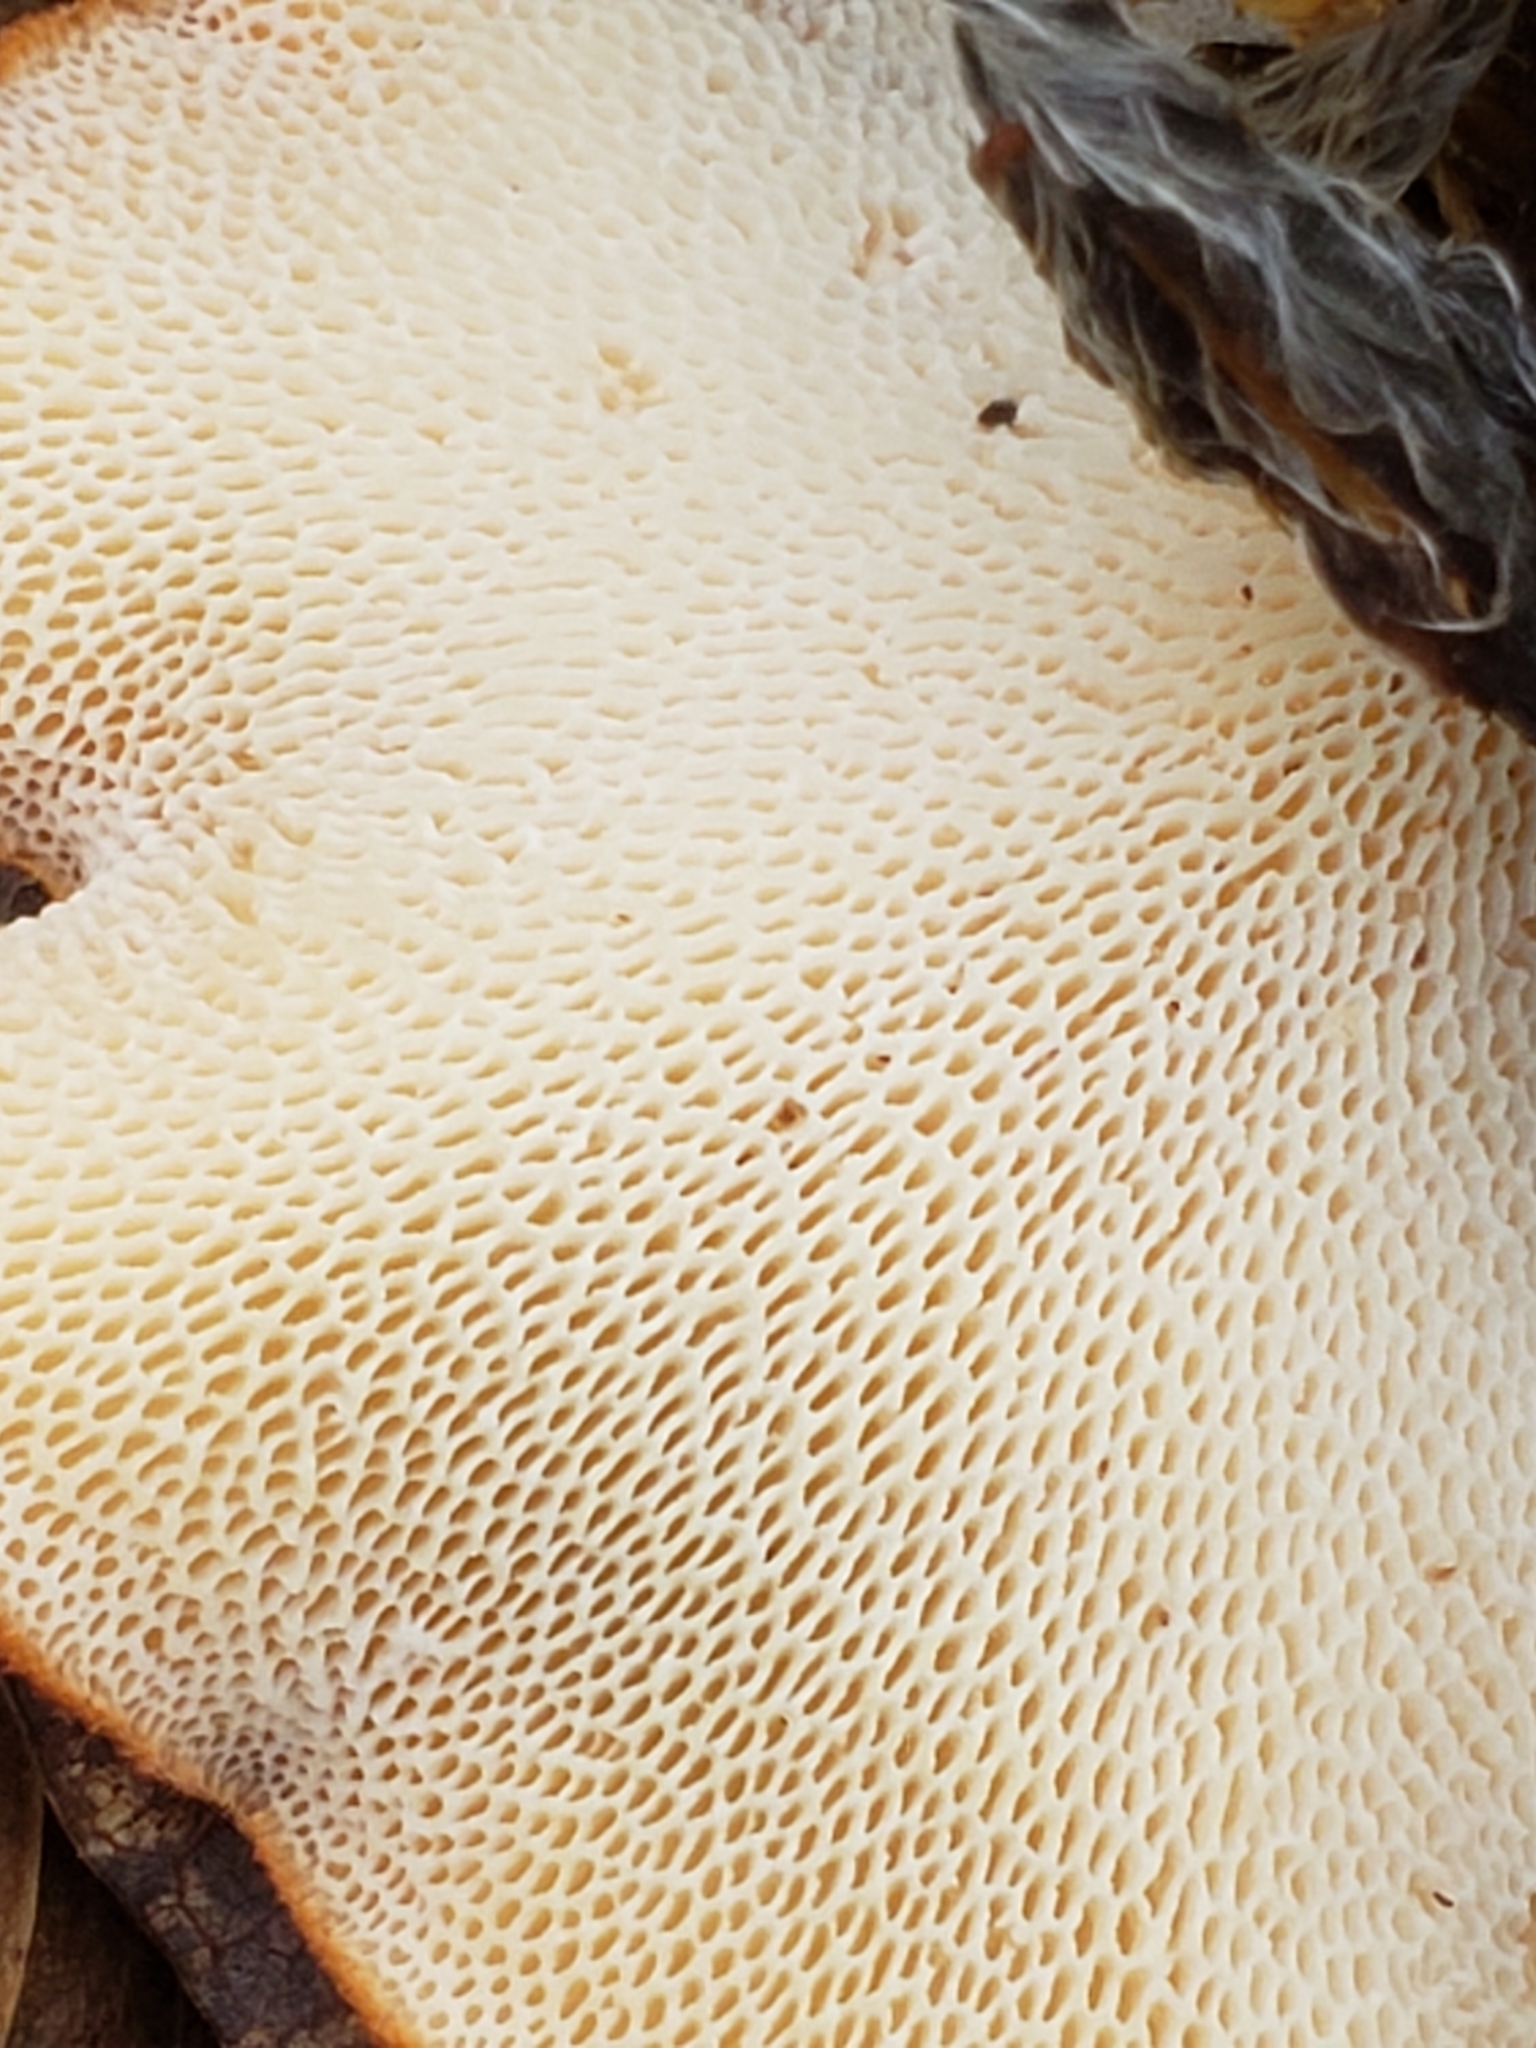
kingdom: Fungi
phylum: Basidiomycota
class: Agaricomycetes
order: Polyporales
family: Polyporaceae
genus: Neofavolus
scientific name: Neofavolus alveolaris
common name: Hexagonal-pored polypore
